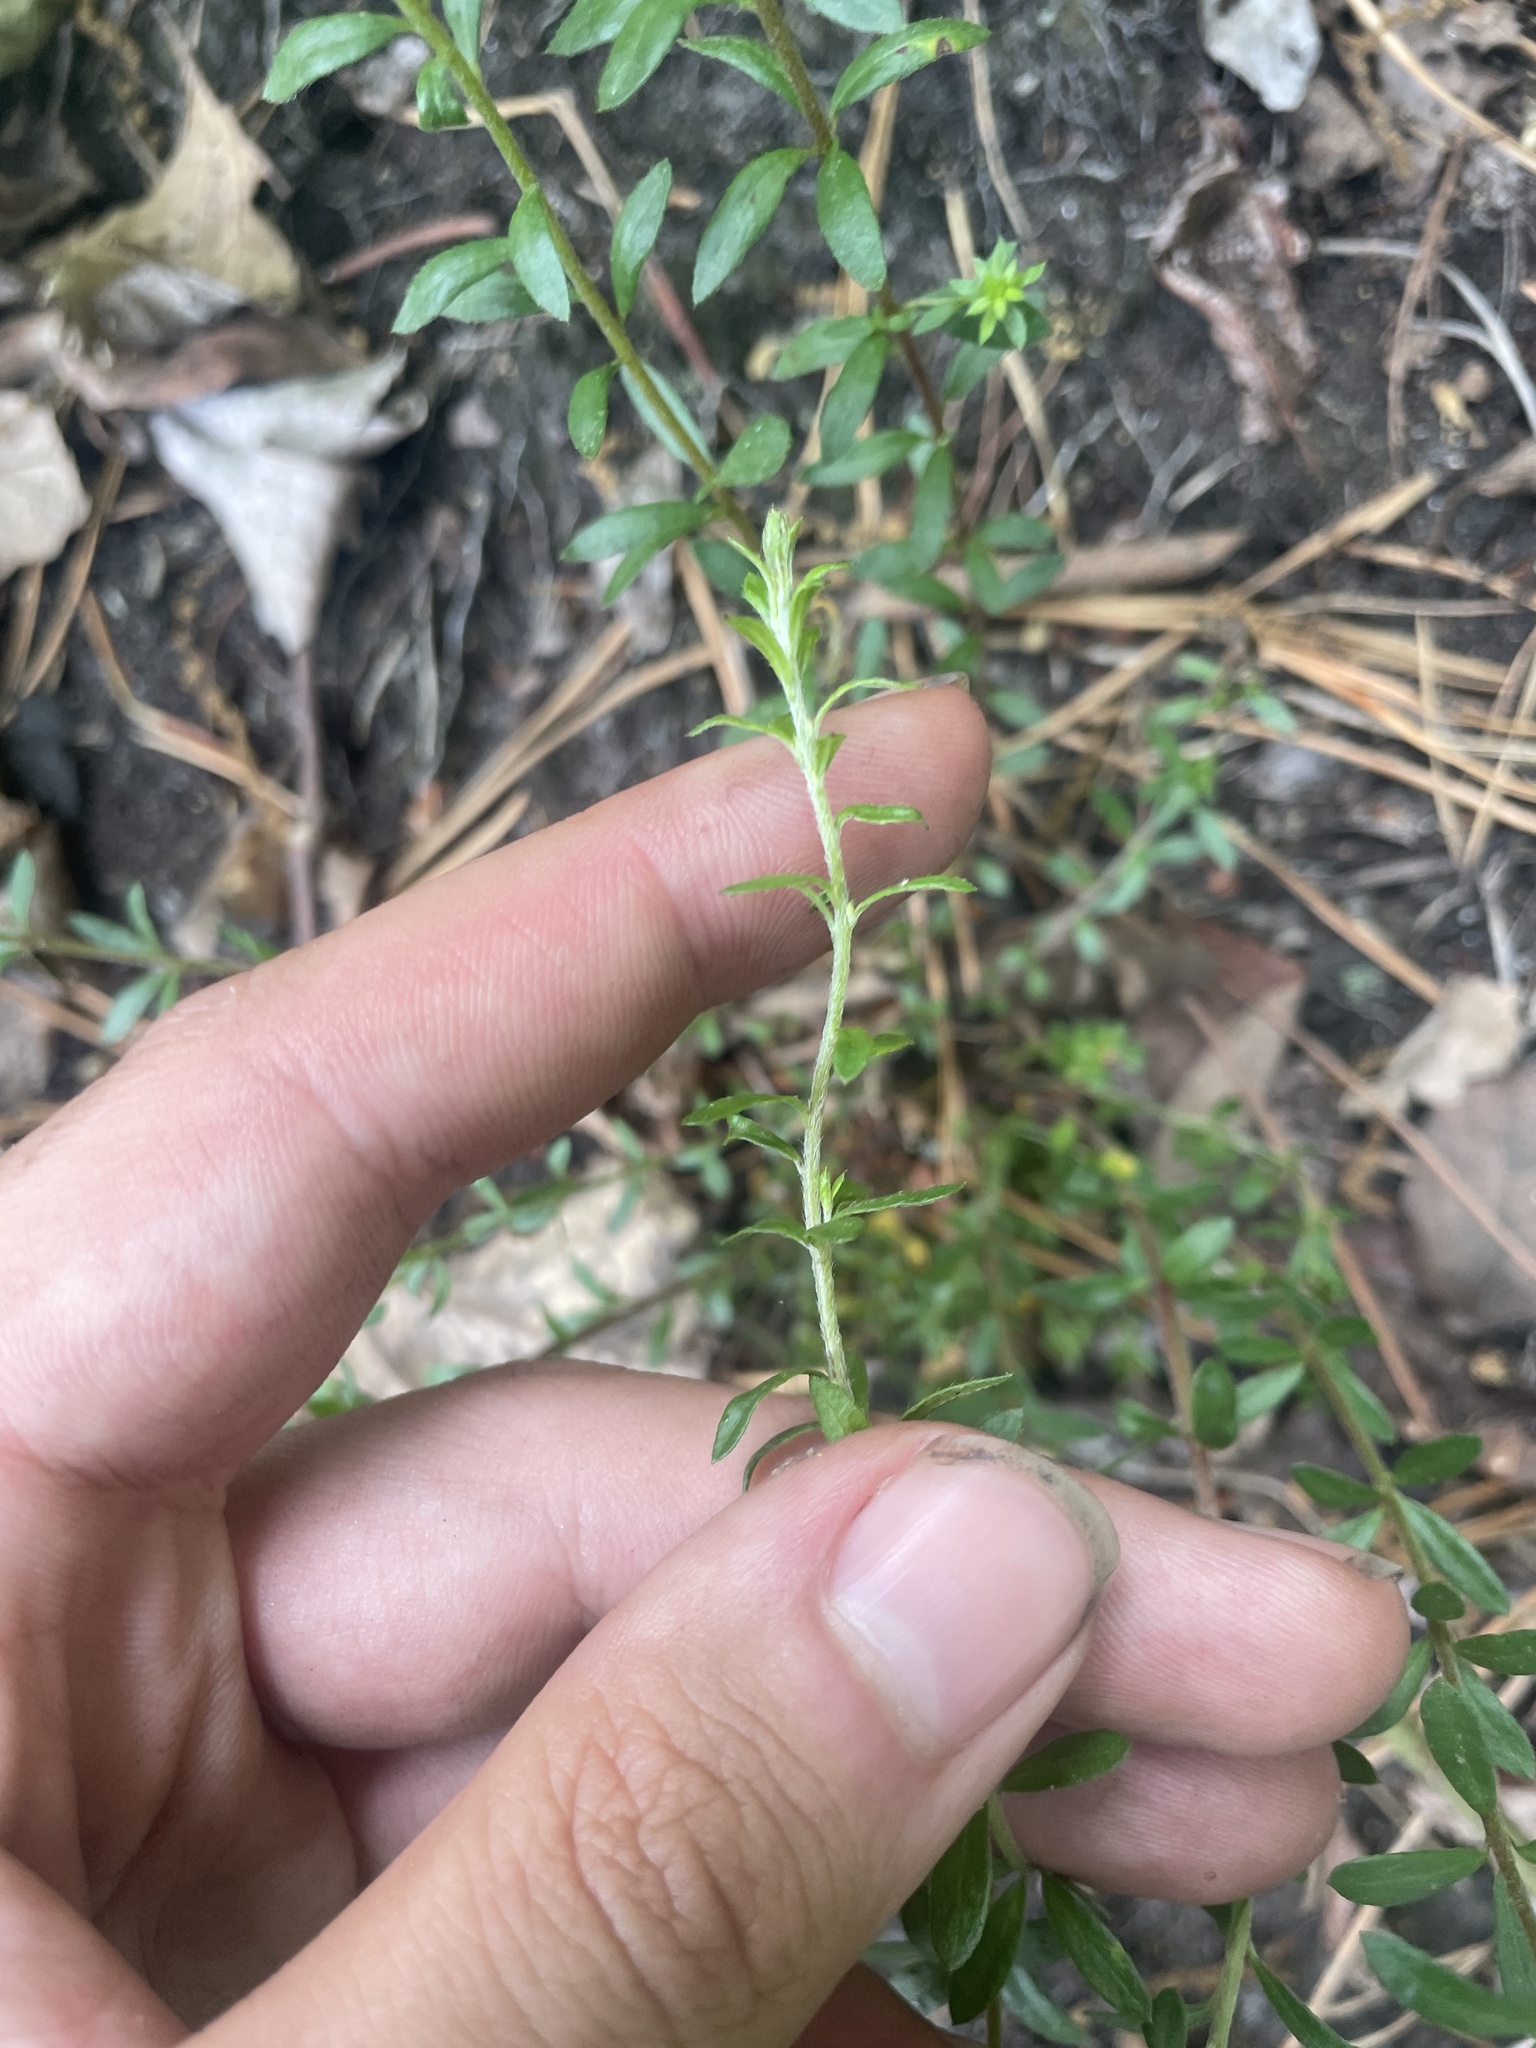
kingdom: Plantae
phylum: Tracheophyta
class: Magnoliopsida
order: Malvales
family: Cistaceae
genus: Lechea
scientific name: Lechea mucronata
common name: Hairy pinweed
